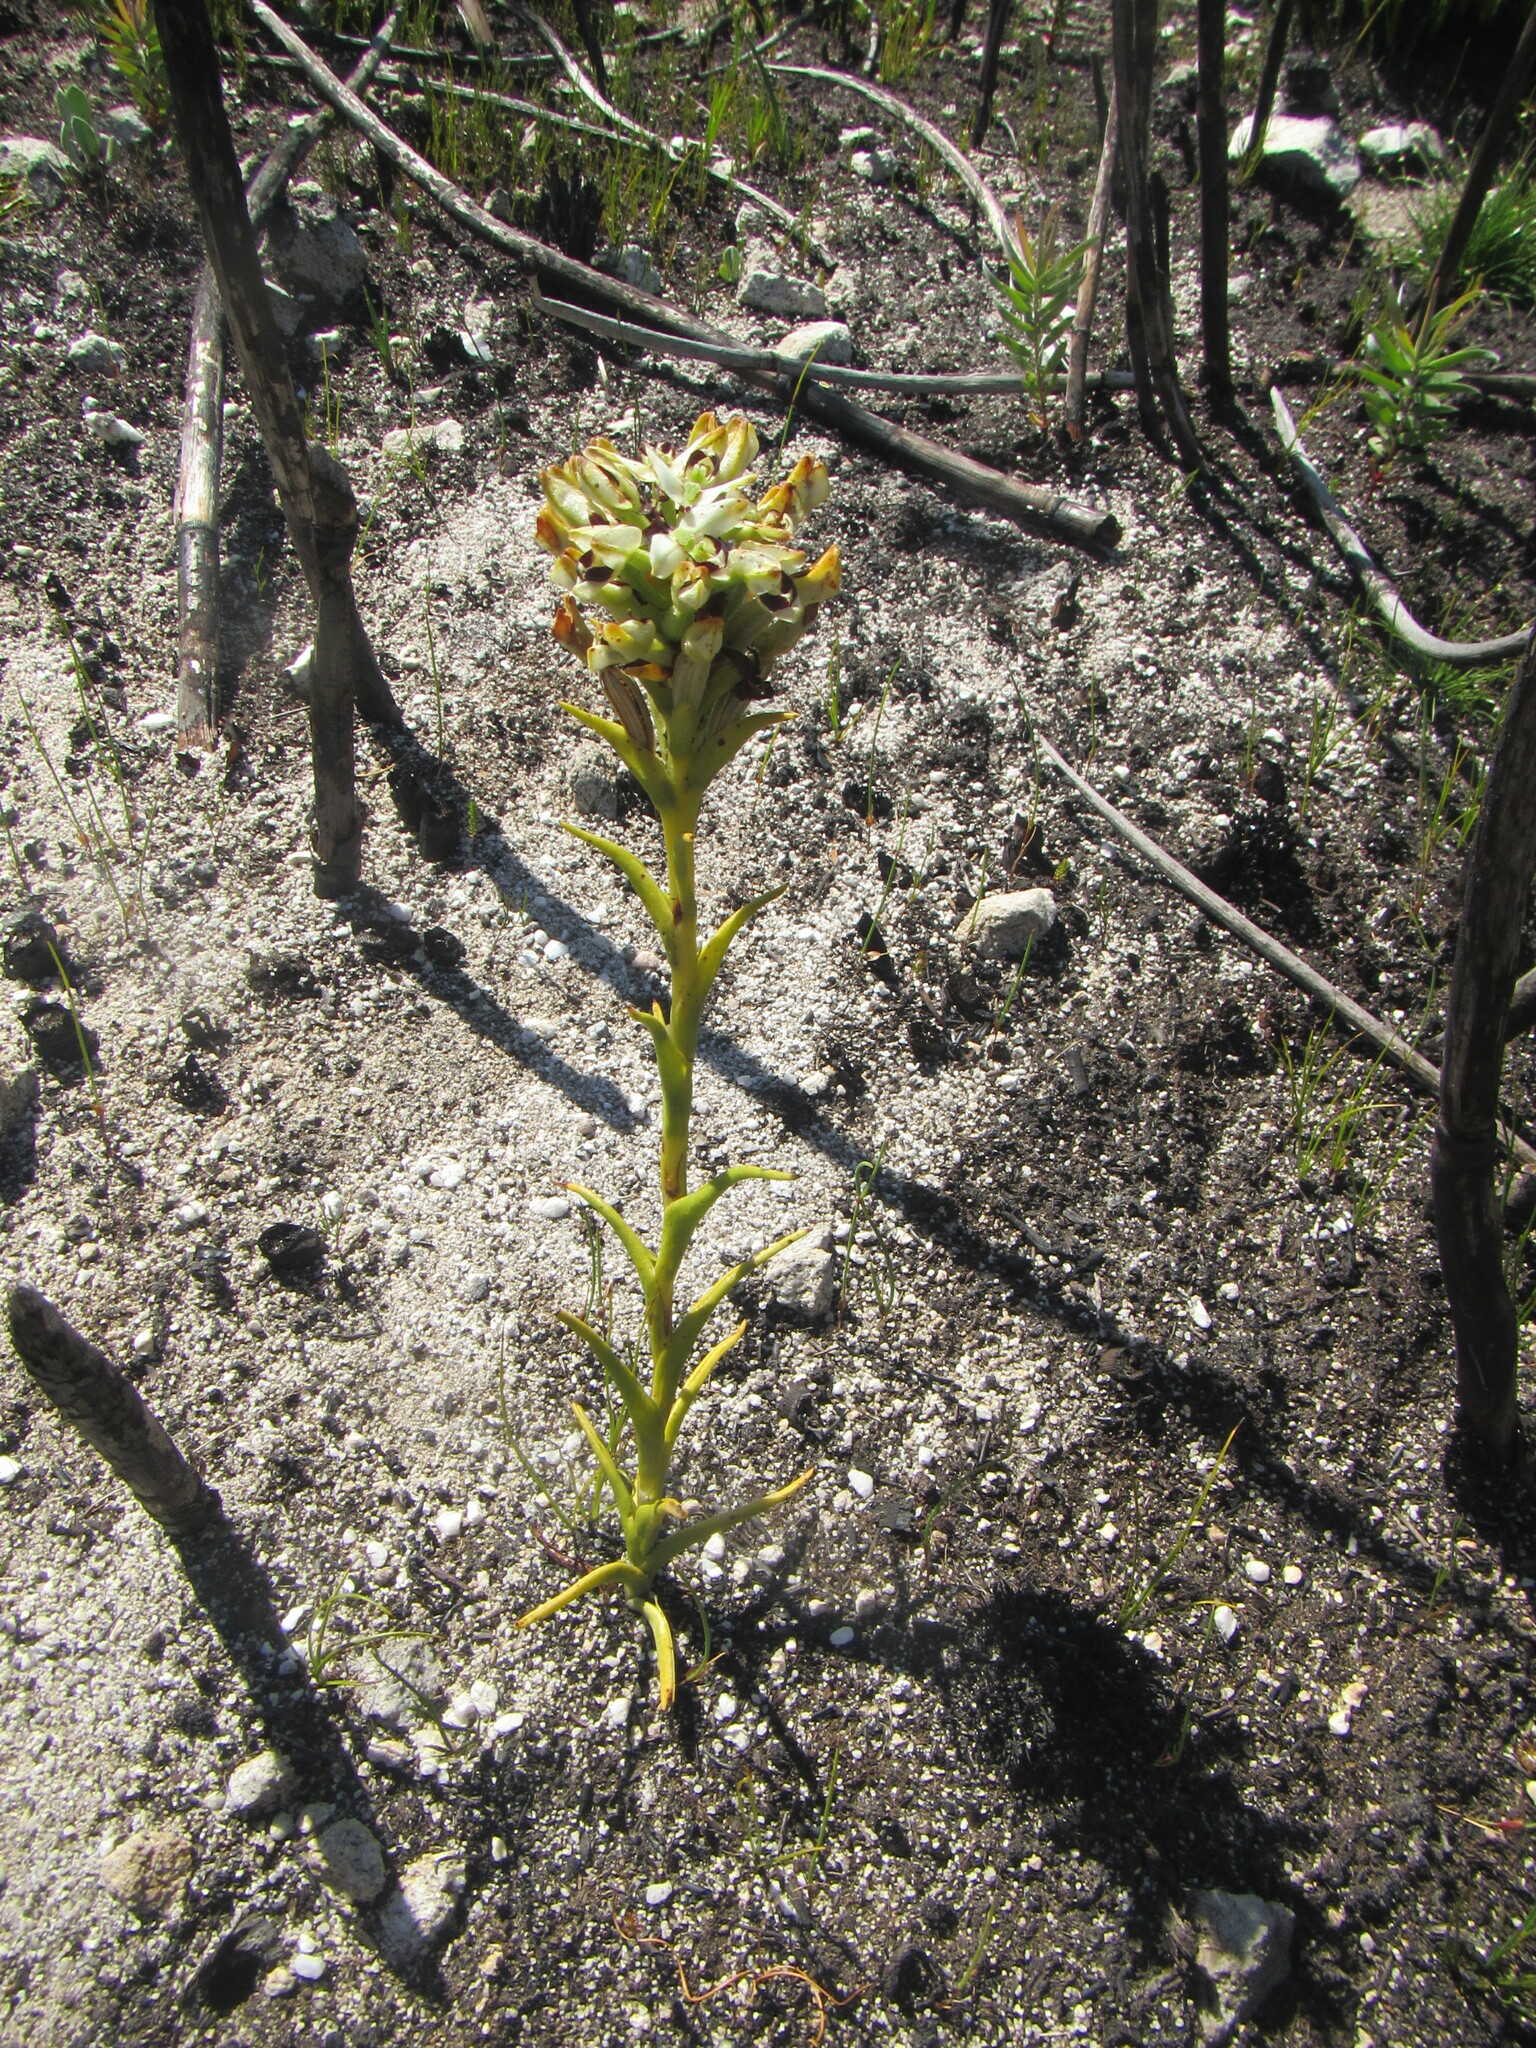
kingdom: Plantae
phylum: Tracheophyta
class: Liliopsida
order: Asparagales
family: Orchidaceae
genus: Disa
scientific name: Disa bivalvata
